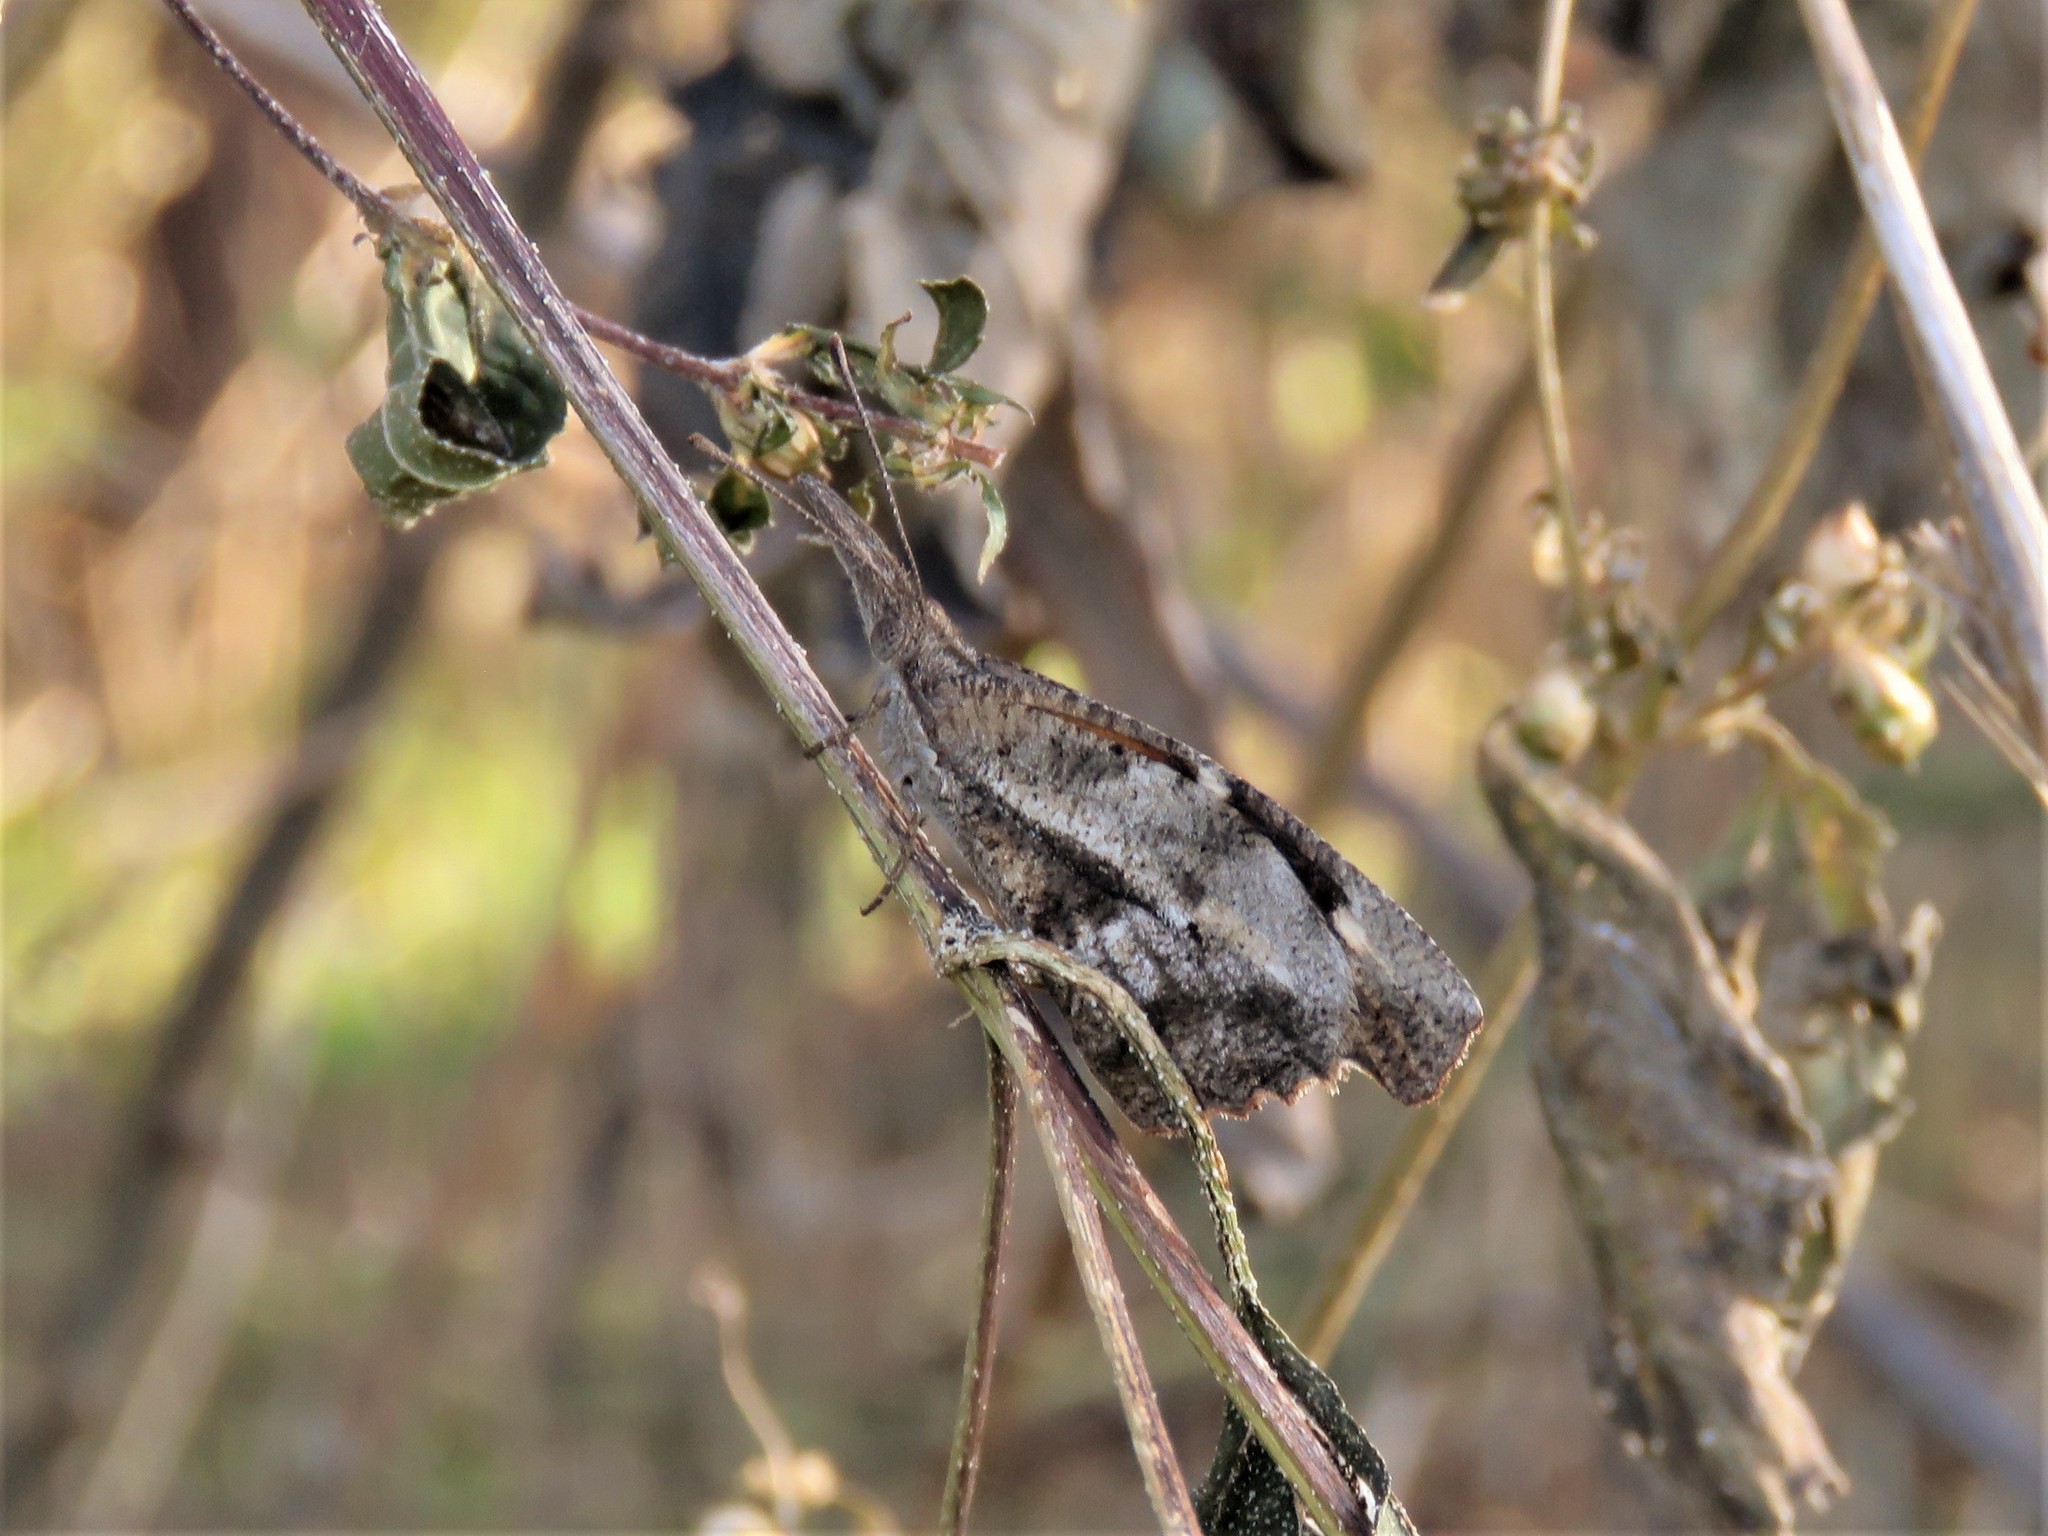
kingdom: Animalia
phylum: Arthropoda
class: Insecta
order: Lepidoptera
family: Nymphalidae
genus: Libytheana
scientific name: Libytheana carinenta
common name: American snout
